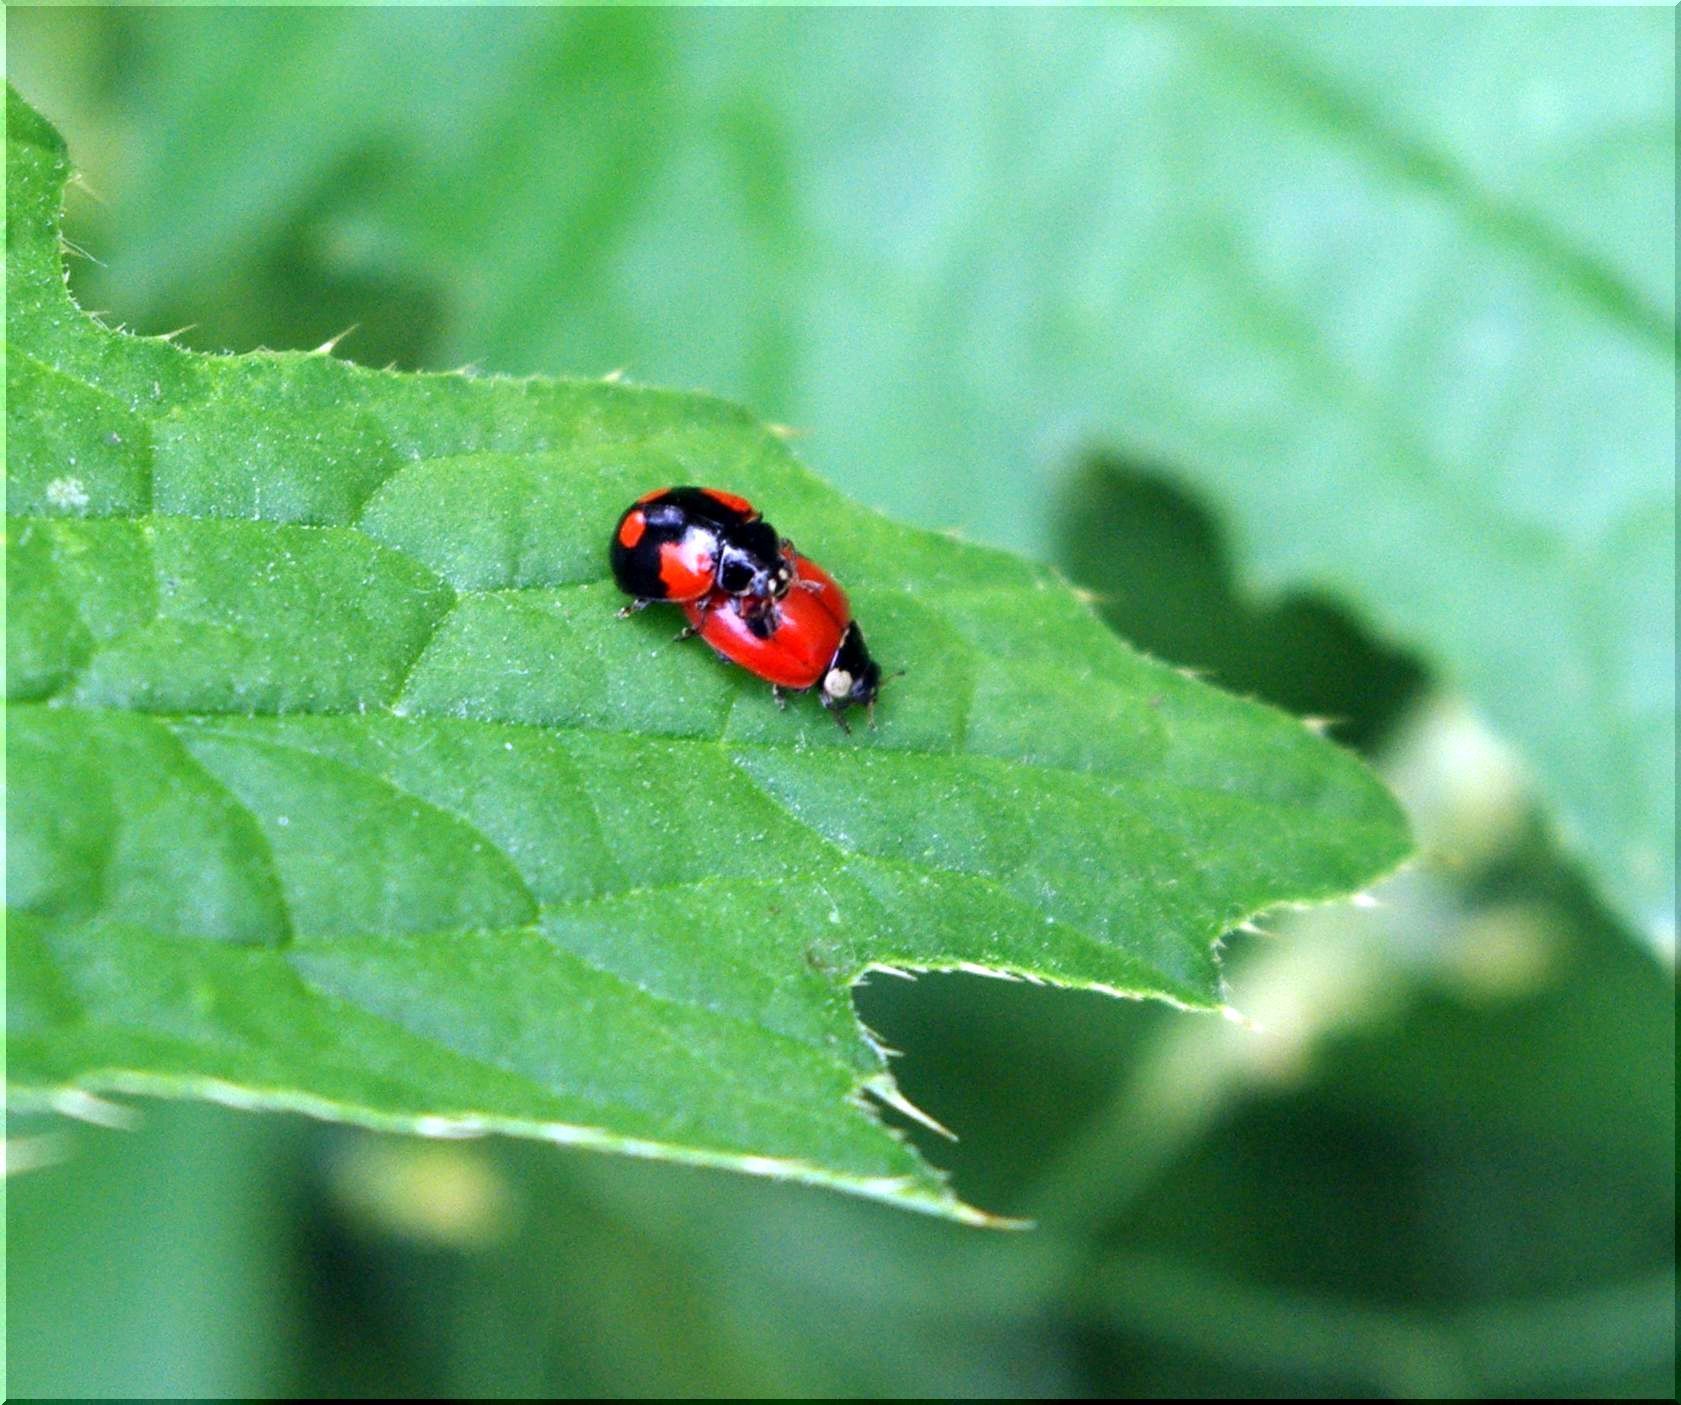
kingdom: Animalia
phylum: Arthropoda
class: Insecta
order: Coleoptera
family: Coccinellidae
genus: Adalia
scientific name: Adalia bipunctata
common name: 2-spot ladybird
